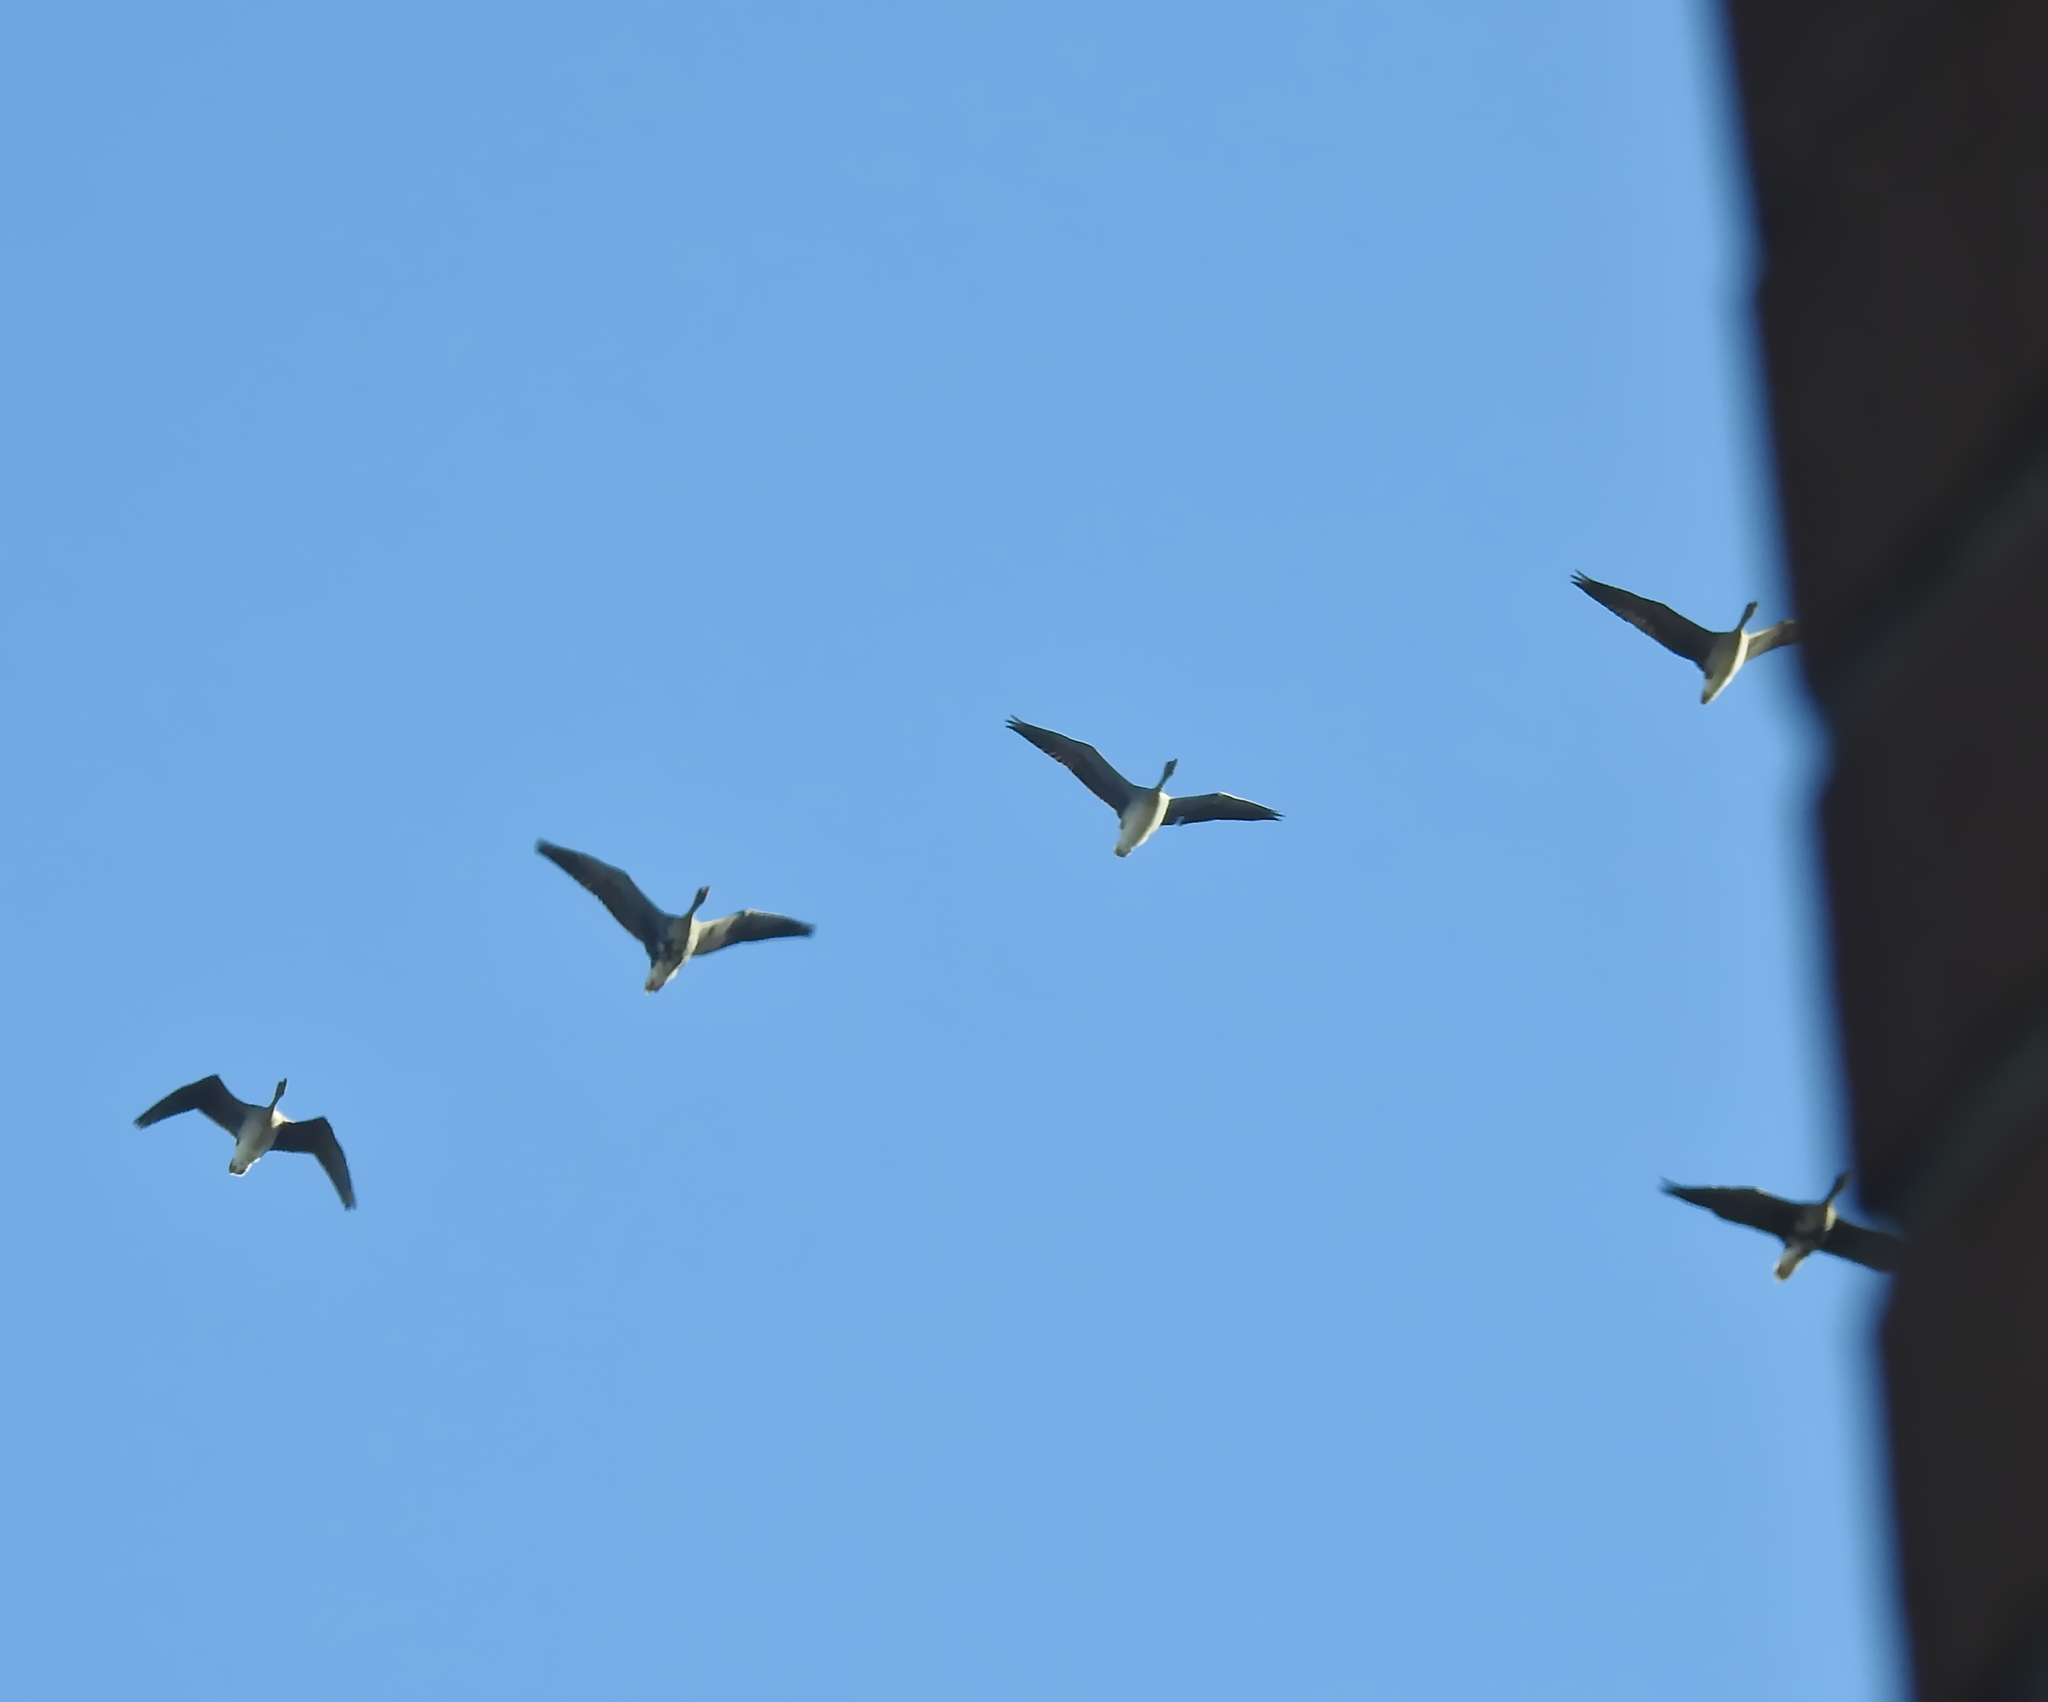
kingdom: Animalia
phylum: Chordata
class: Aves
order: Anseriformes
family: Anatidae
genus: Anser
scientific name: Anser albifrons
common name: Greater white-fronted goose
